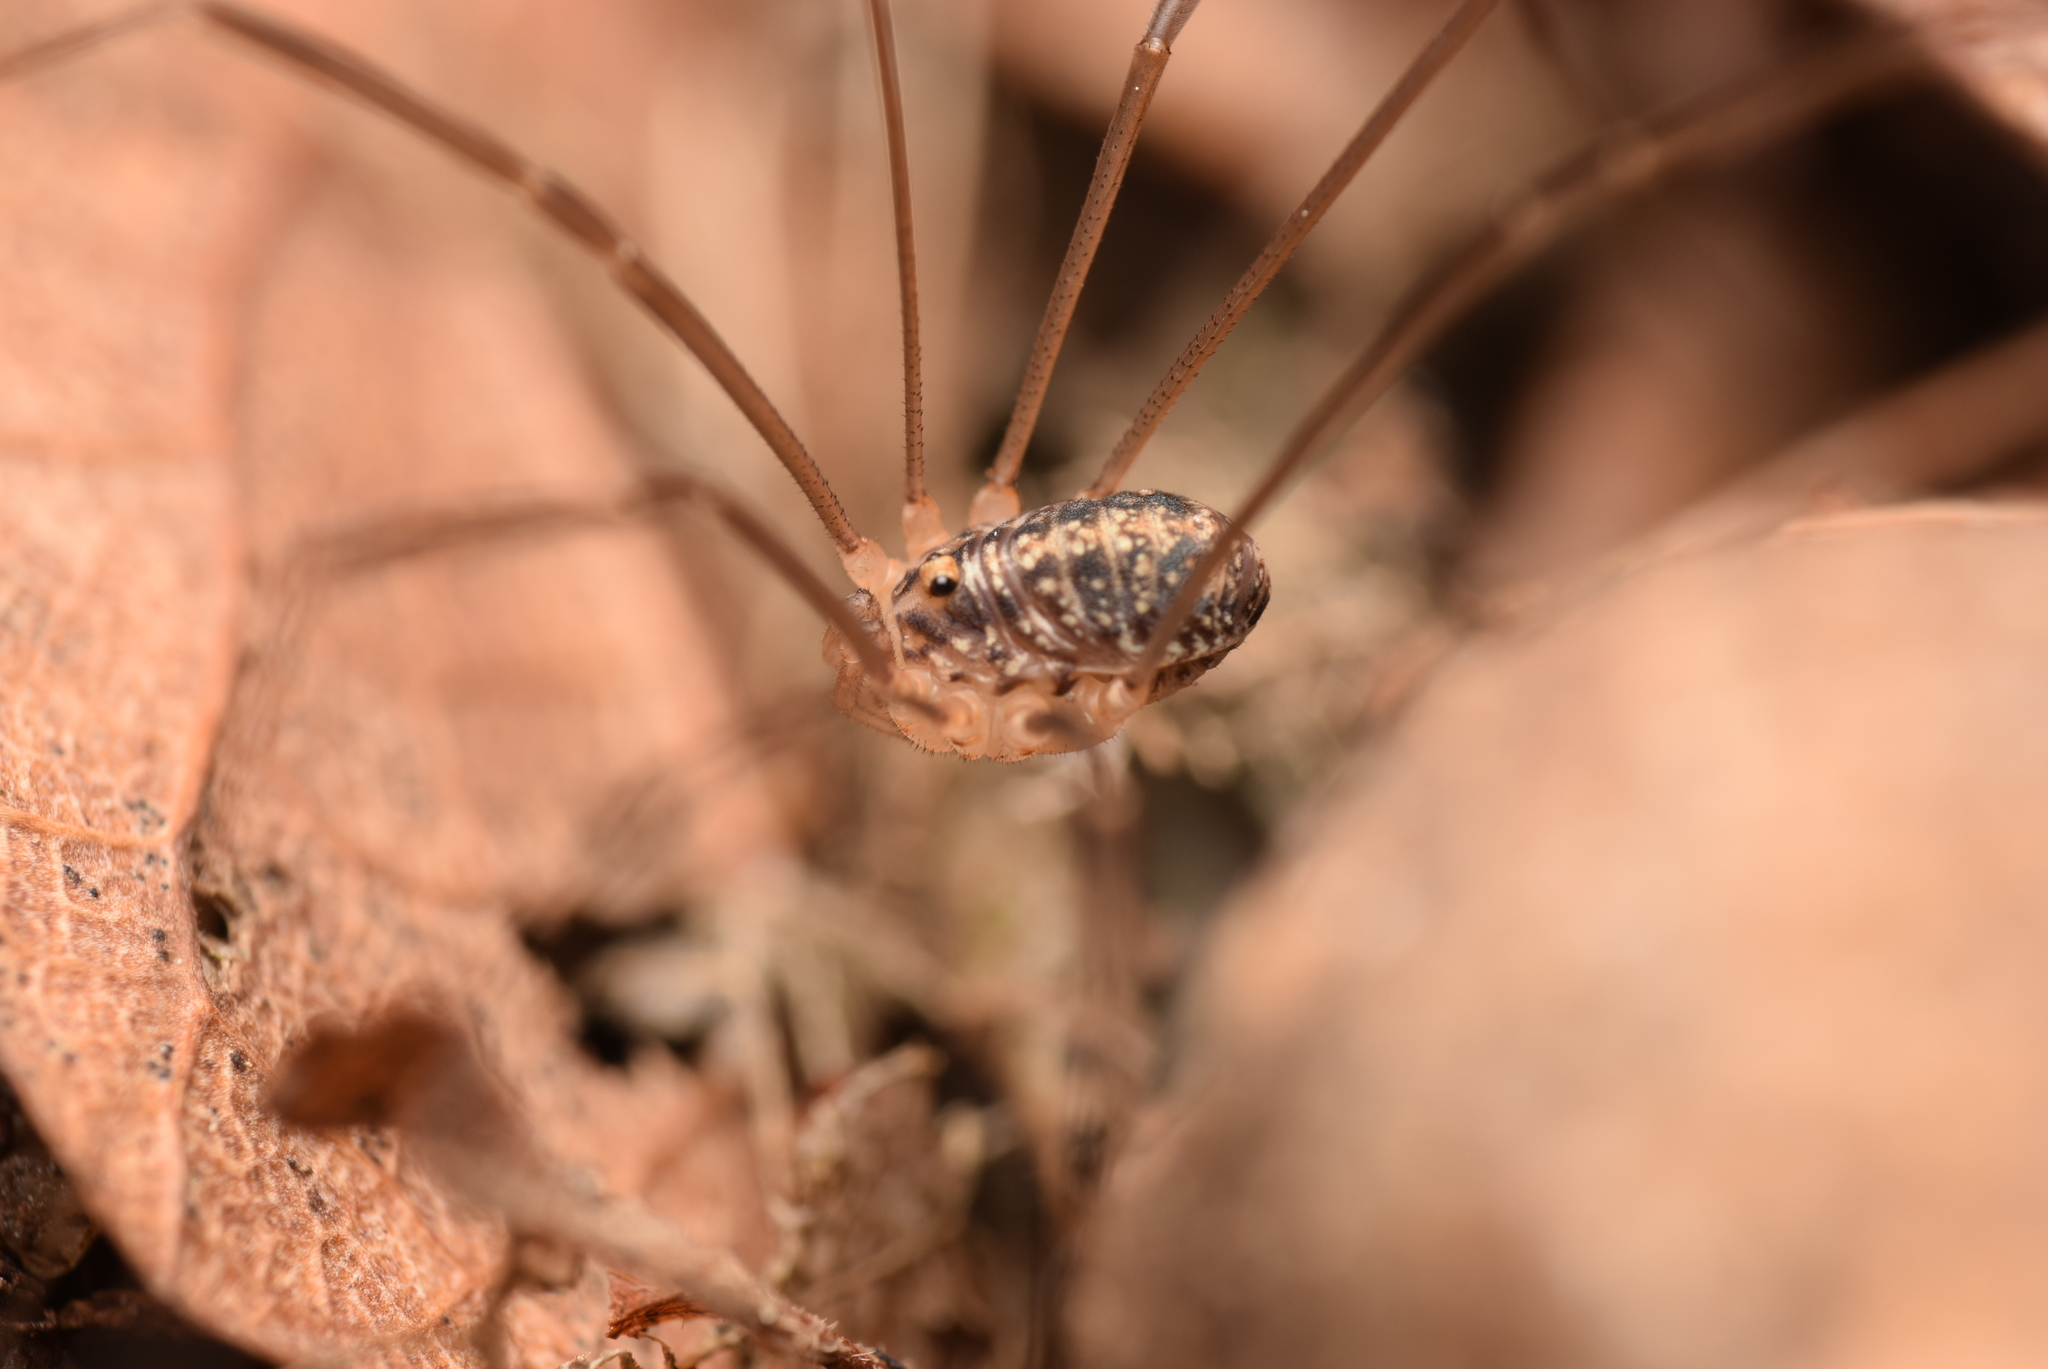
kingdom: Animalia
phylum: Arthropoda
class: Arachnida
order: Opiliones
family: Sclerosomatidae
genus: Nelima
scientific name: Nelima silvatica
